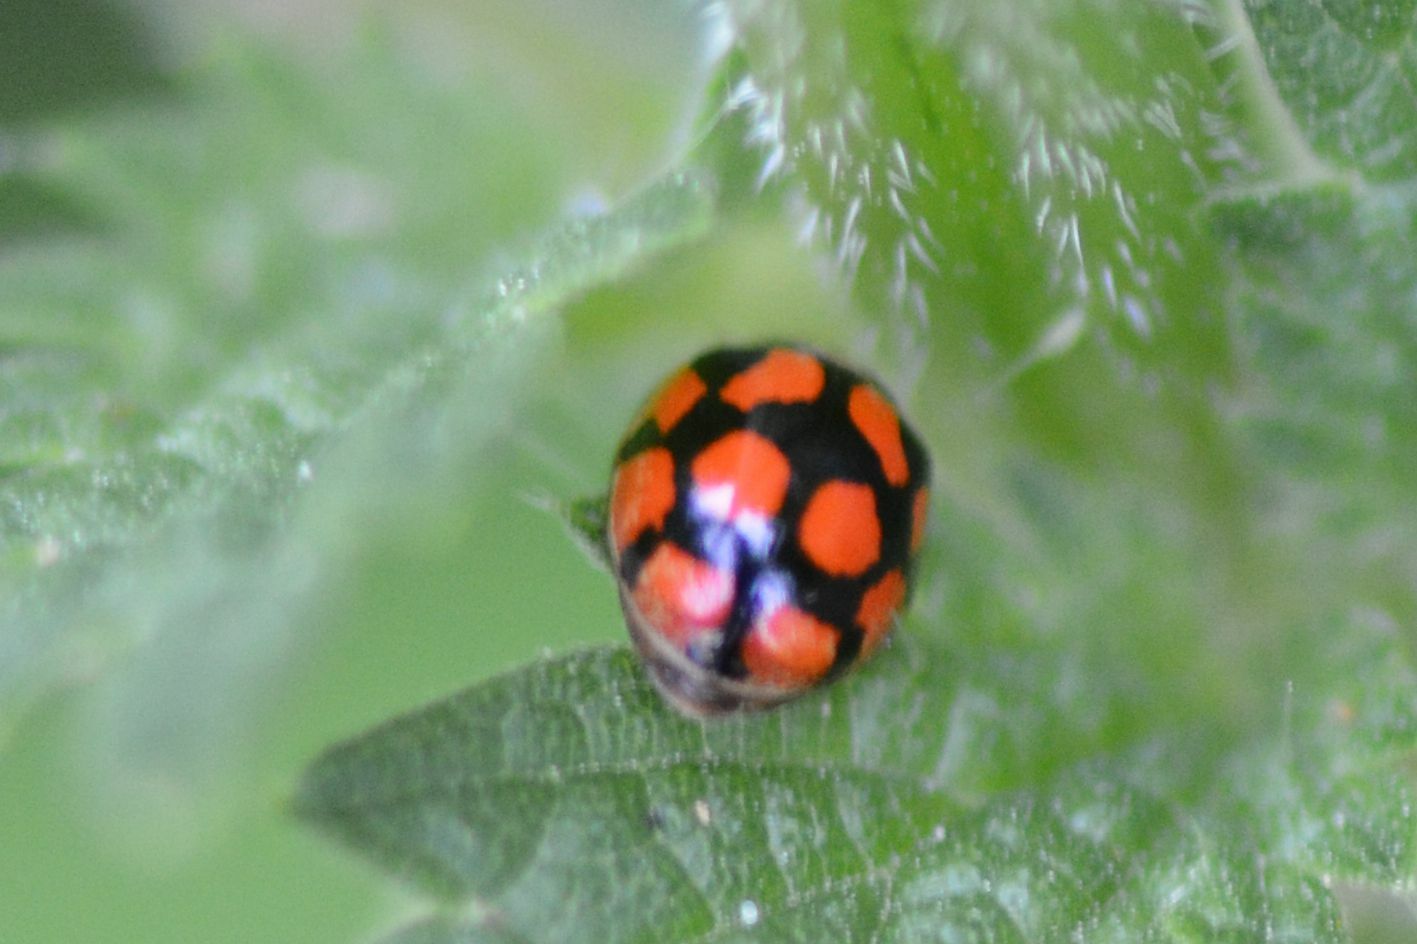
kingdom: Animalia
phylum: Arthropoda
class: Insecta
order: Coleoptera
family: Coccinellidae
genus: Adalia
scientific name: Adalia decempunctata
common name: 10-spot ladybird
